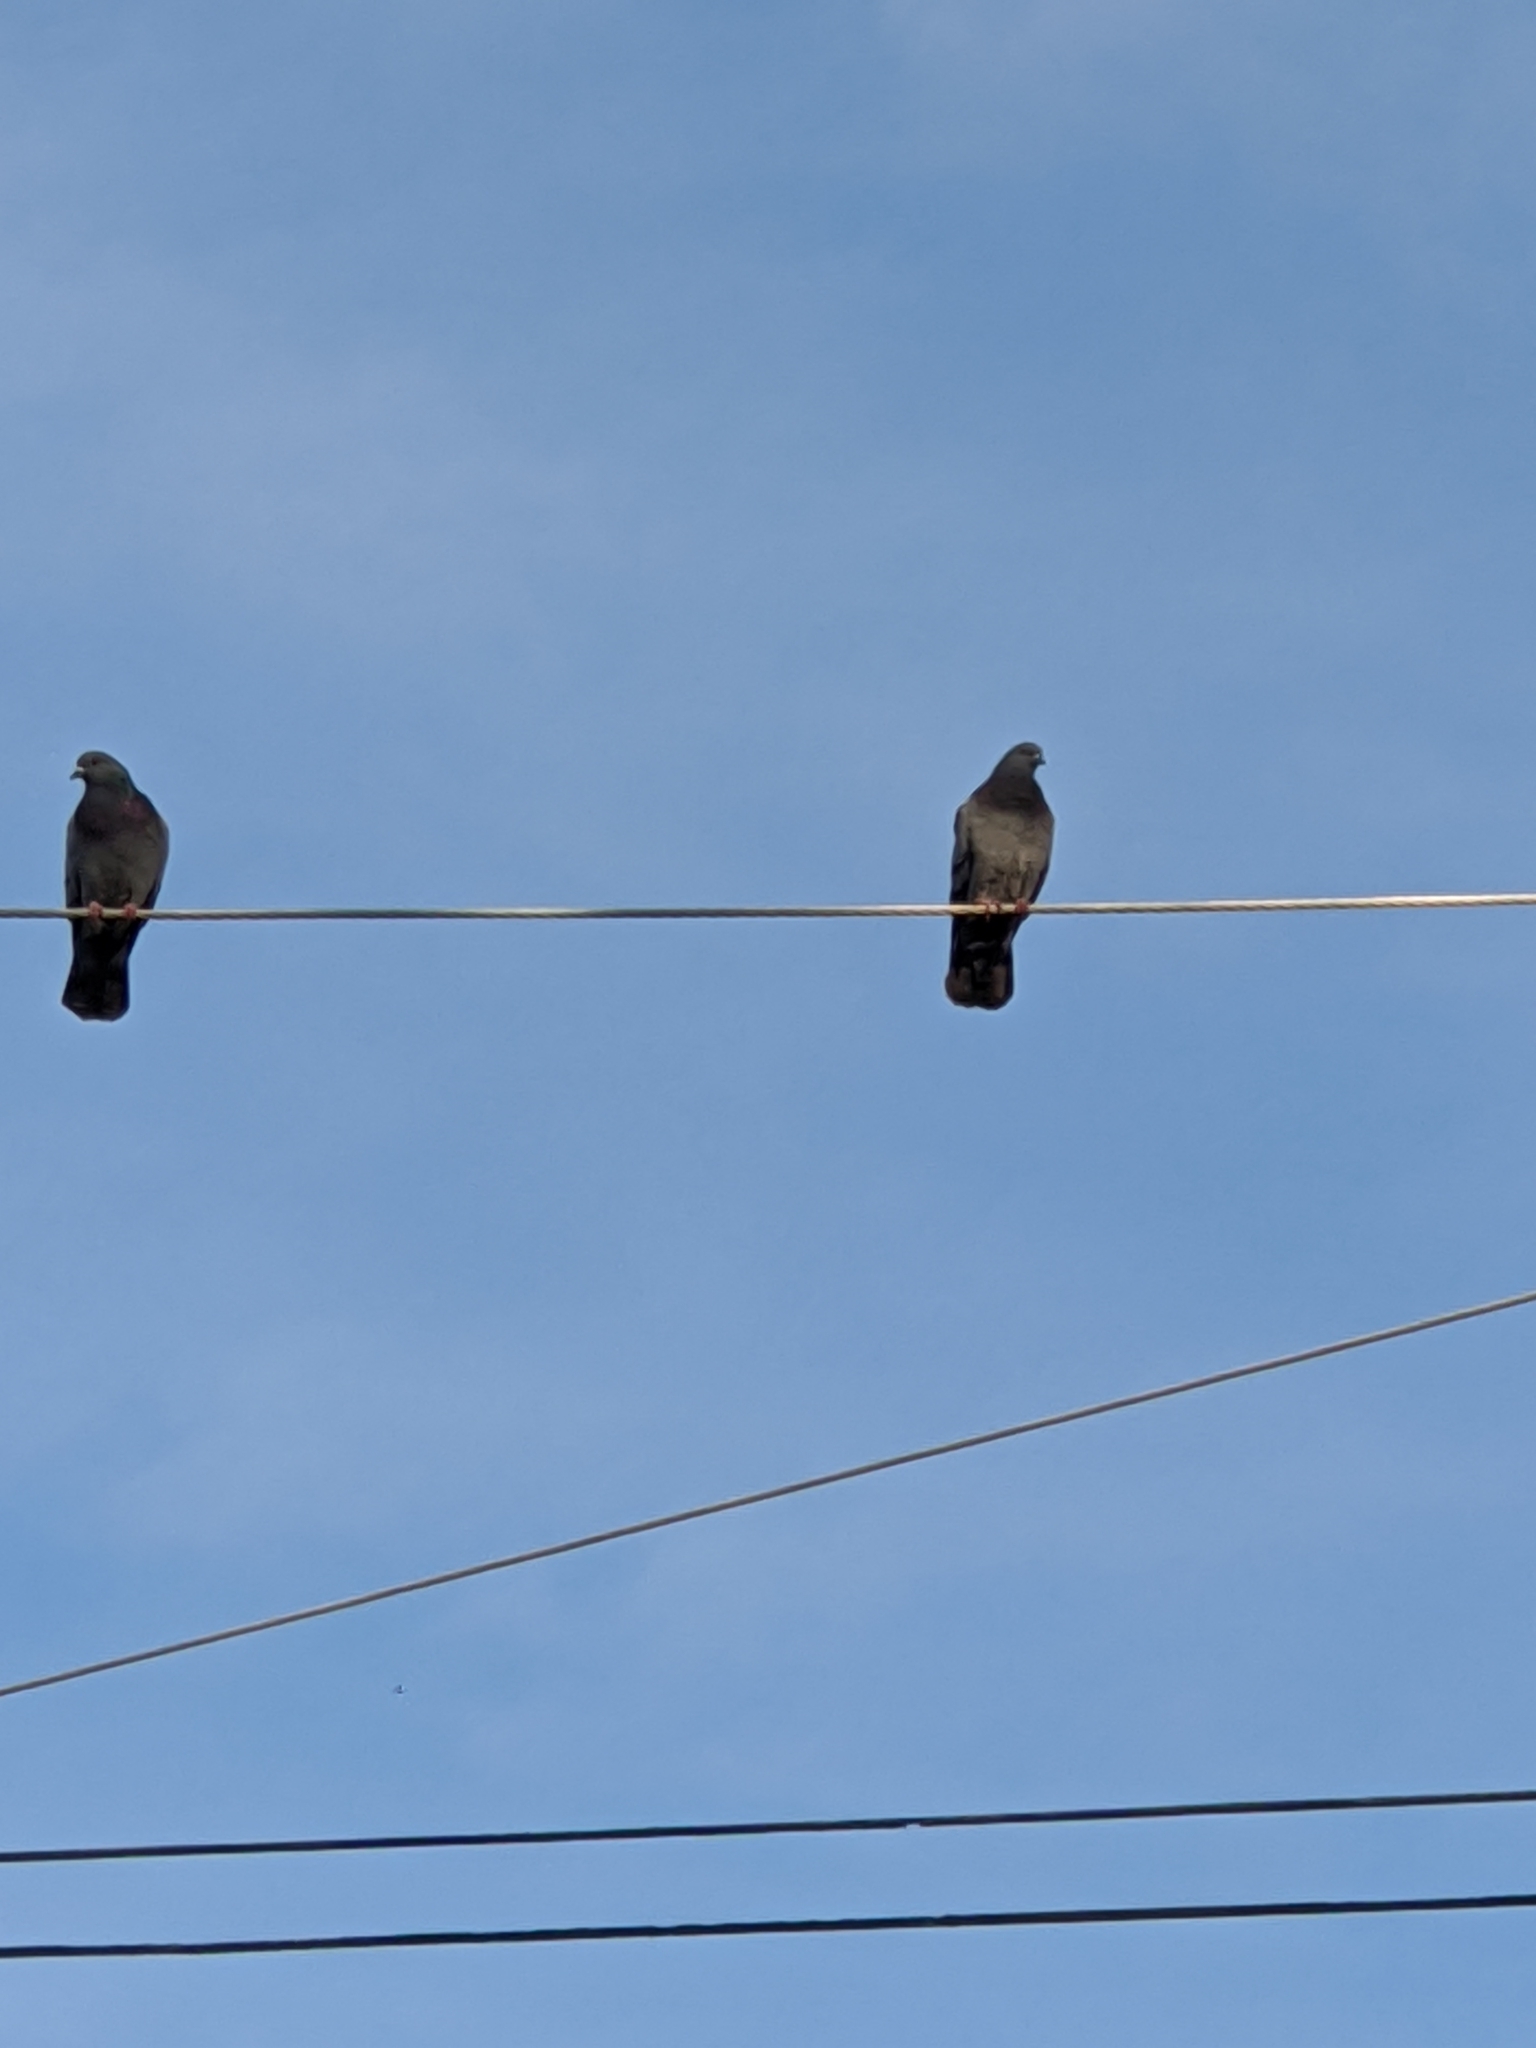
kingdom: Animalia
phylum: Chordata
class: Aves
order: Columbiformes
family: Columbidae
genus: Columba
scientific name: Columba livia
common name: Rock pigeon
